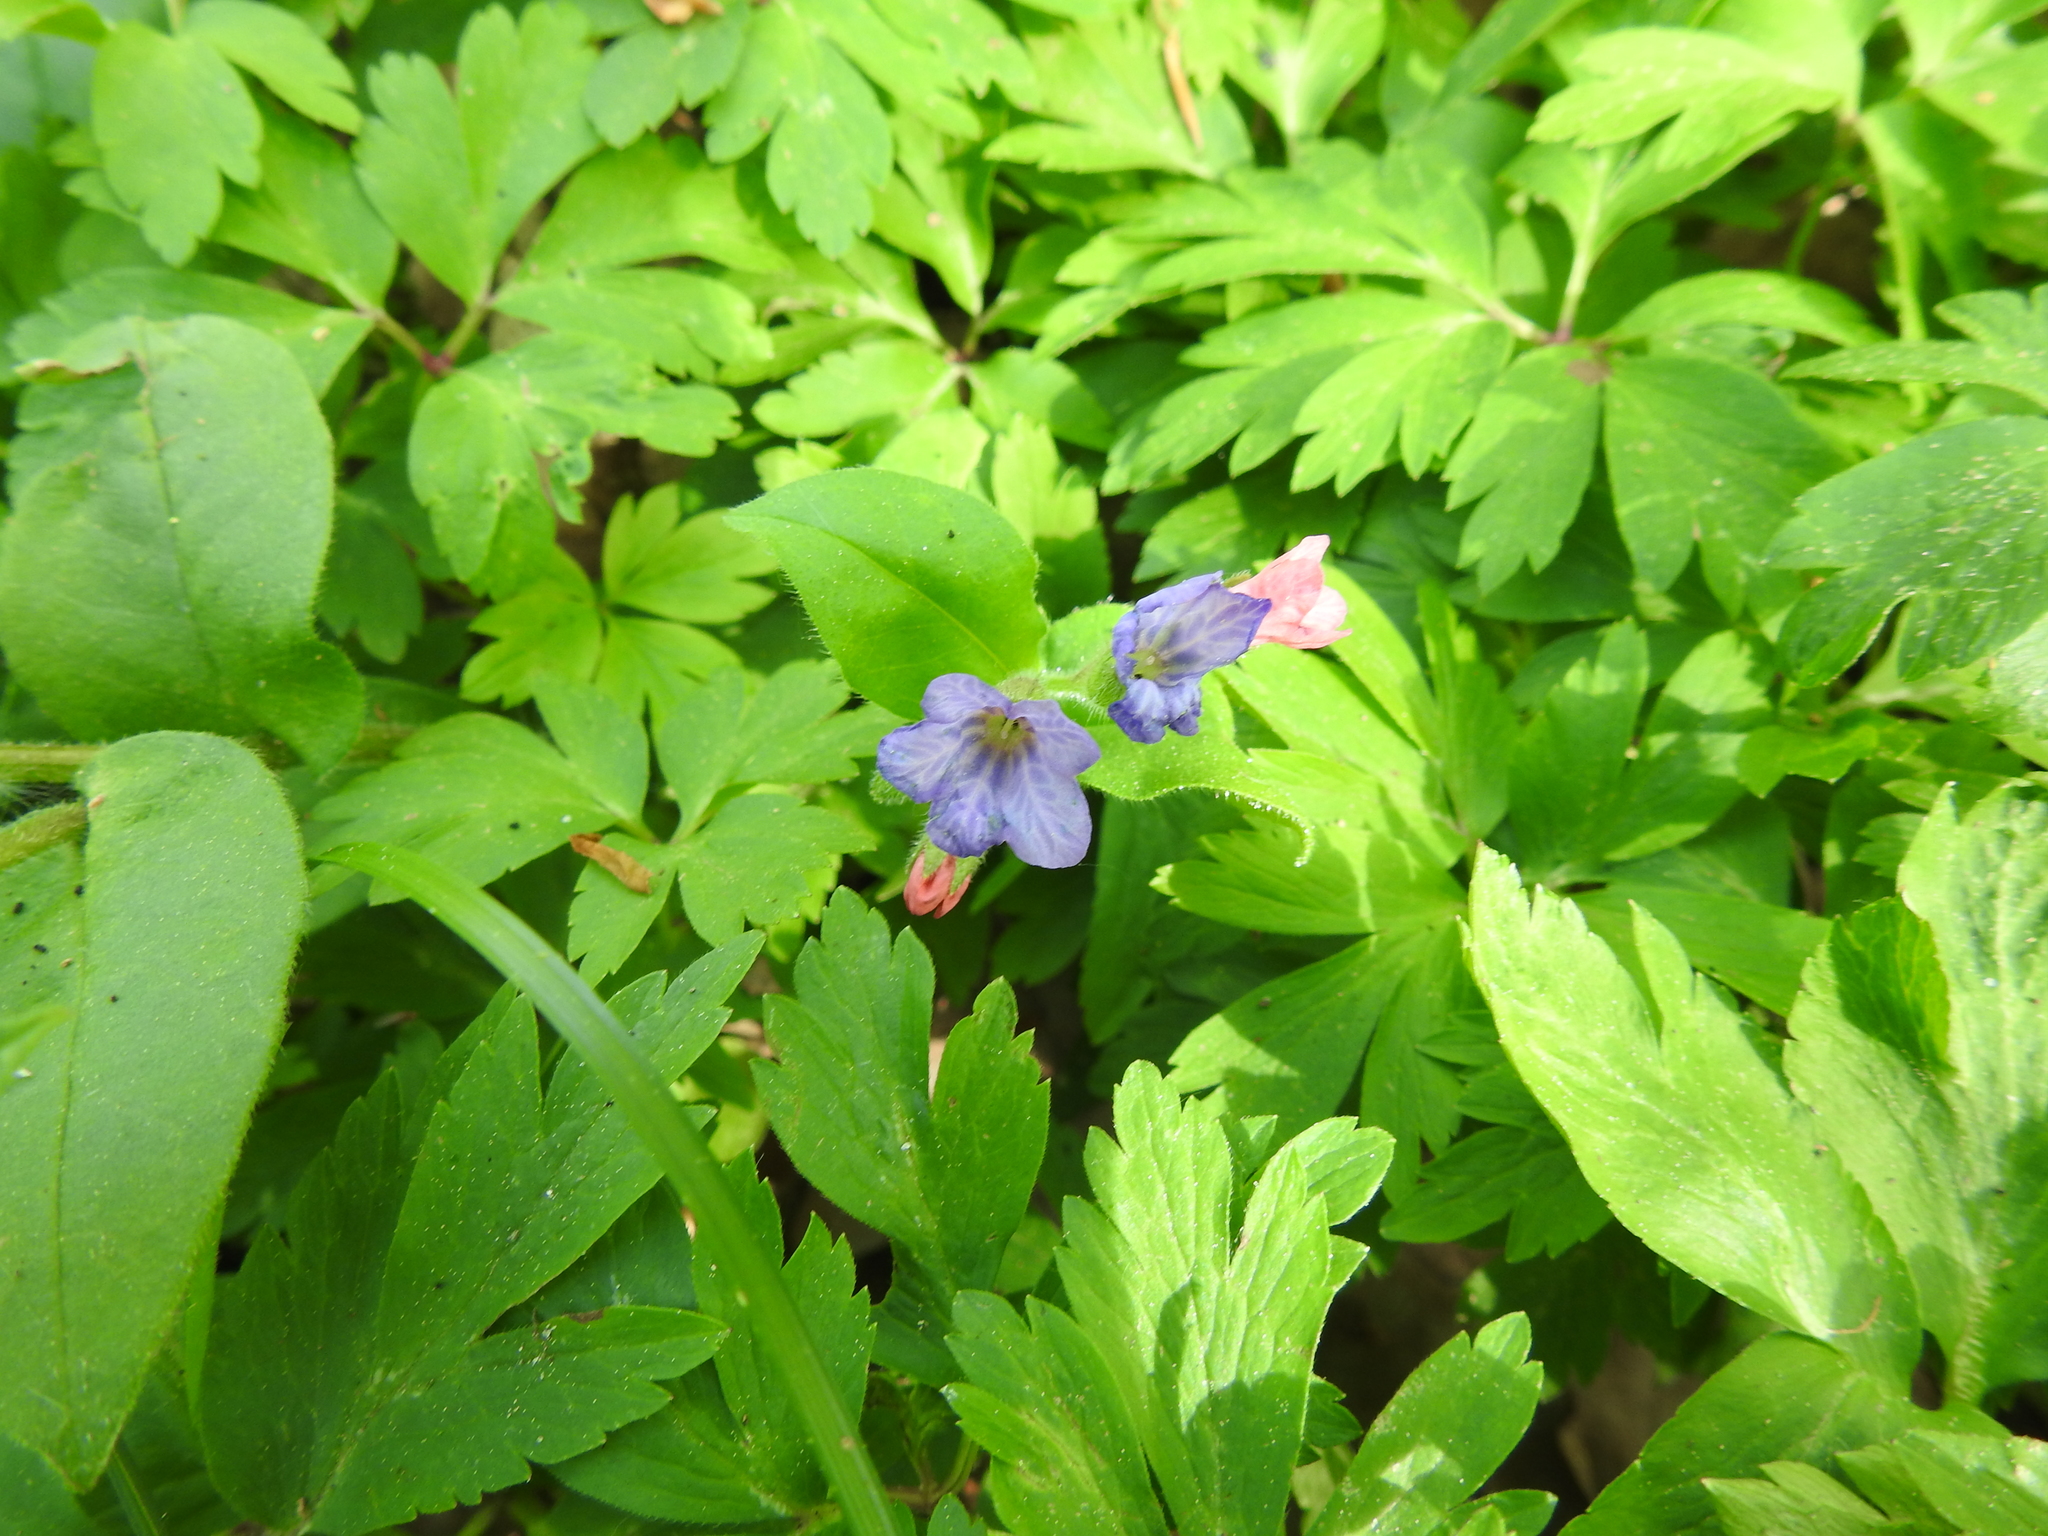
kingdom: Plantae
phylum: Tracheophyta
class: Magnoliopsida
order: Boraginales
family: Boraginaceae
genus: Pulmonaria
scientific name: Pulmonaria obscura
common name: Suffolk lungwort
